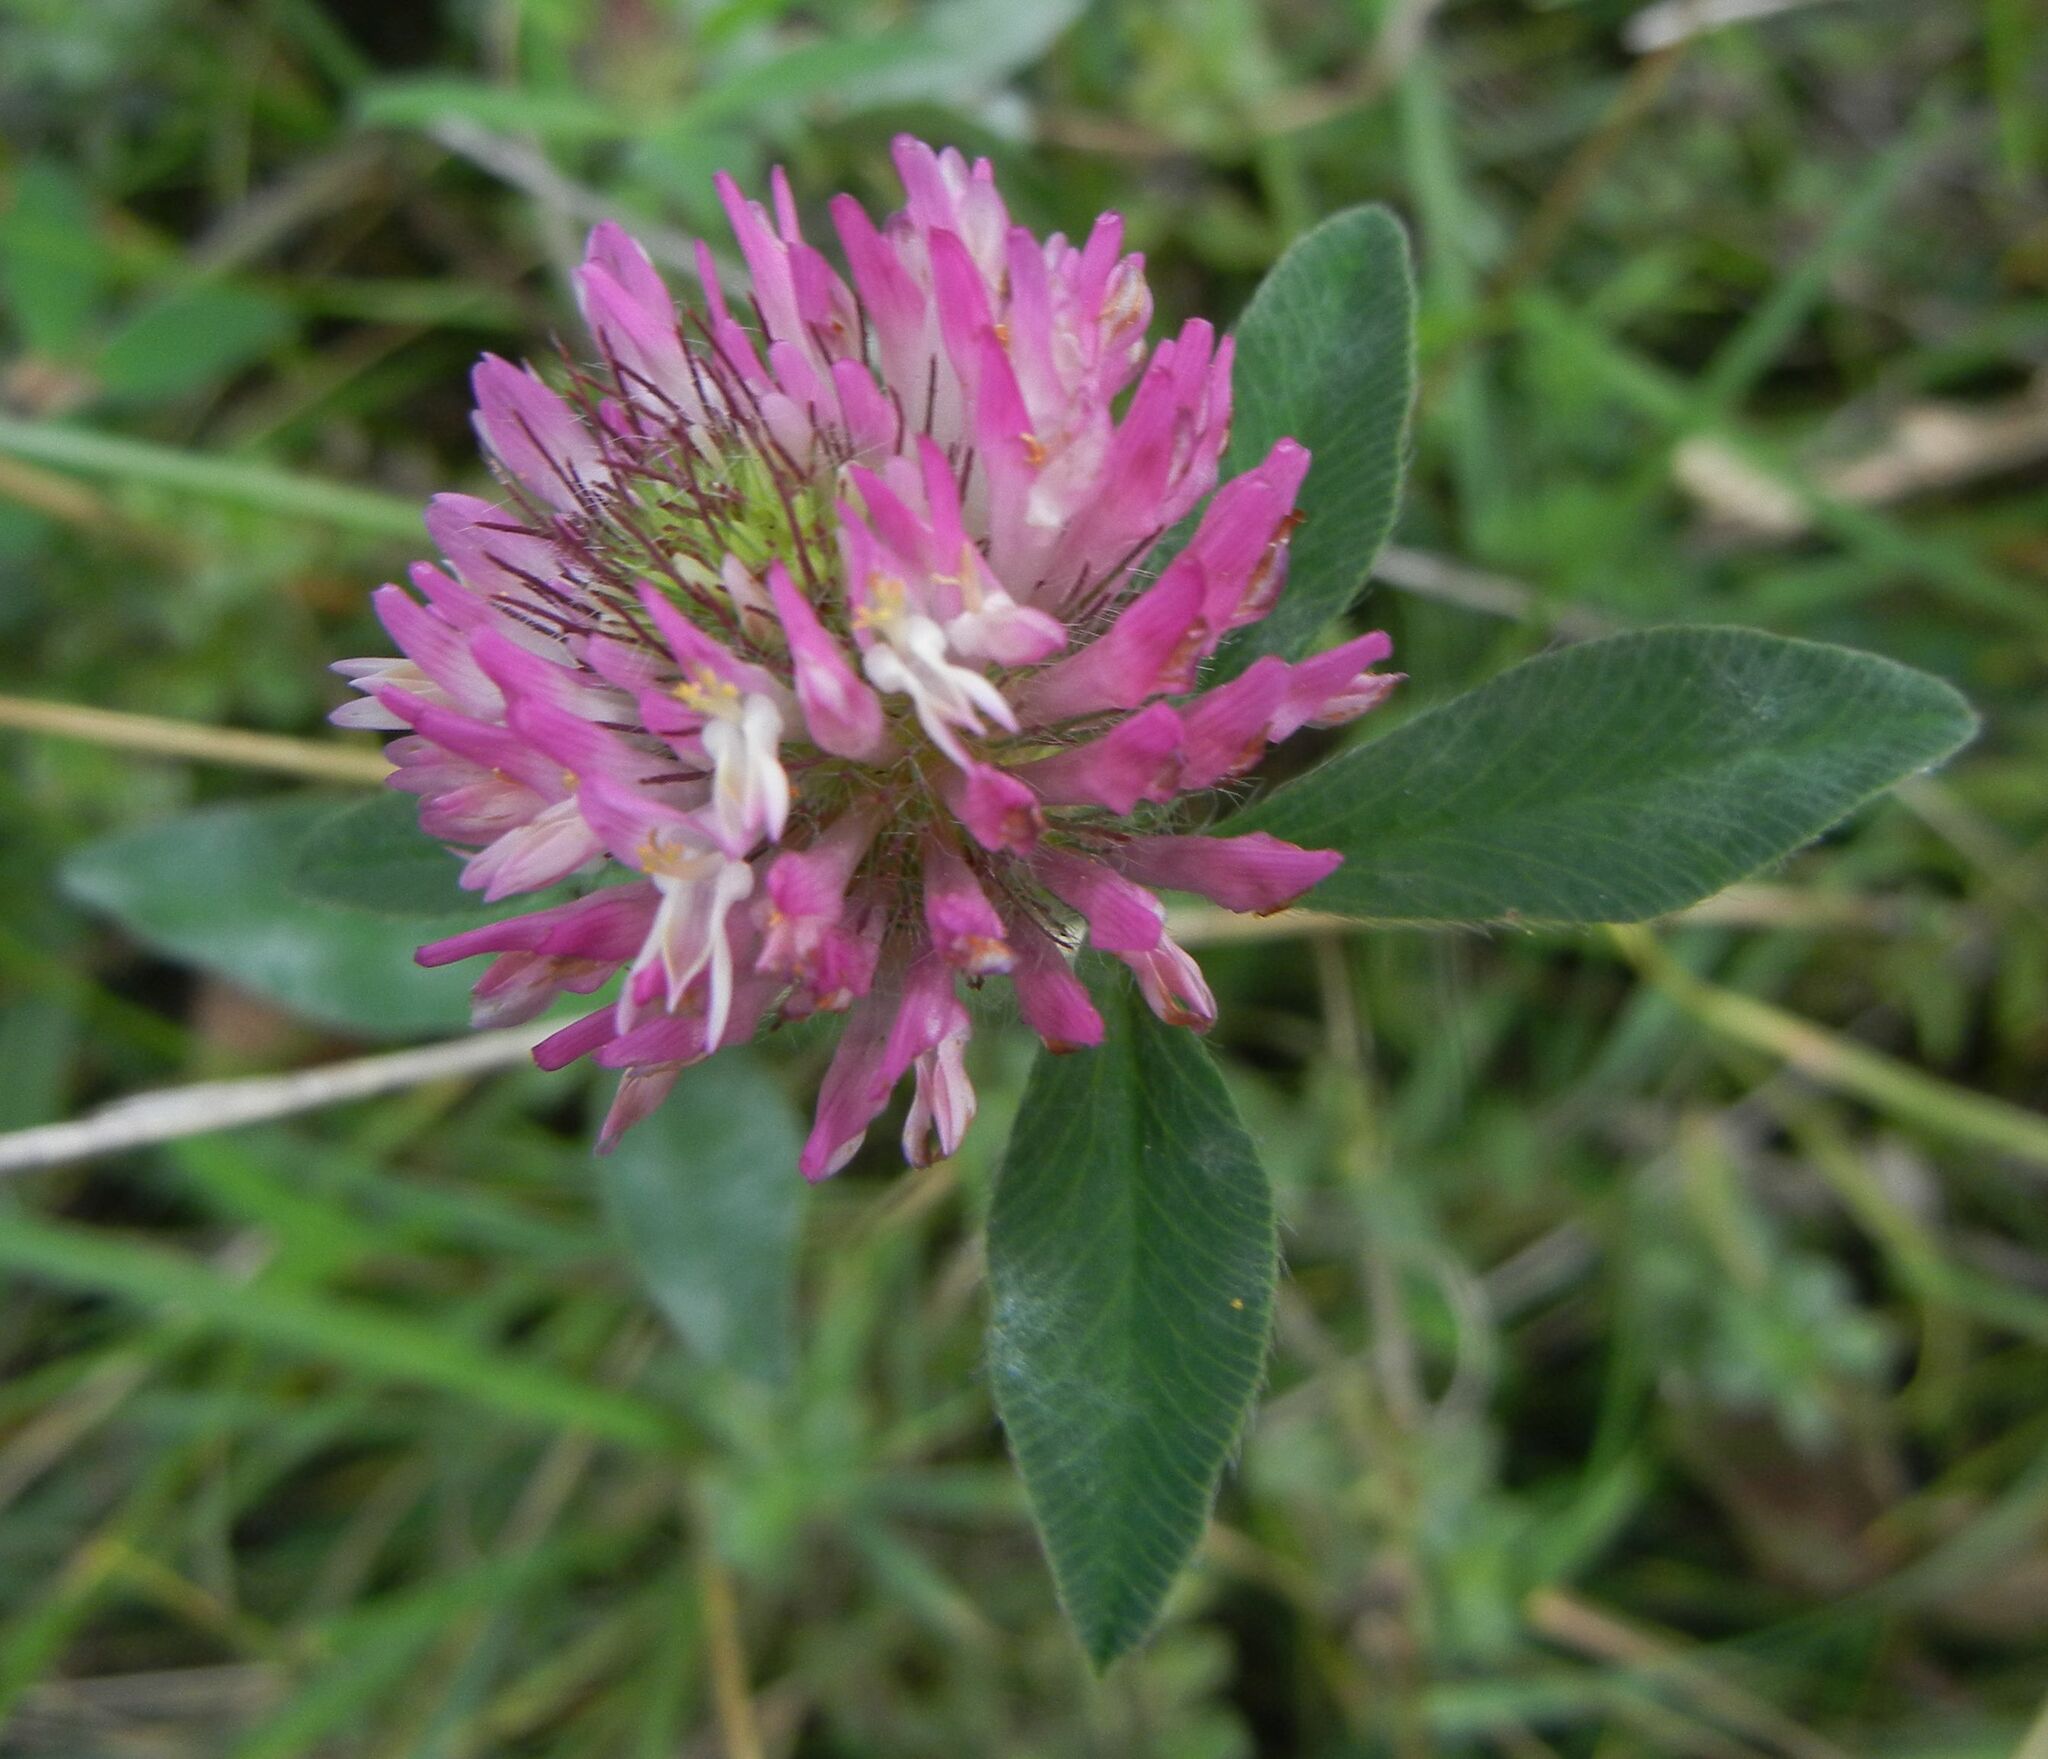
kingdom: Plantae
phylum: Tracheophyta
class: Magnoliopsida
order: Fabales
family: Fabaceae
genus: Trifolium
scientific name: Trifolium pratense
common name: Red clover
